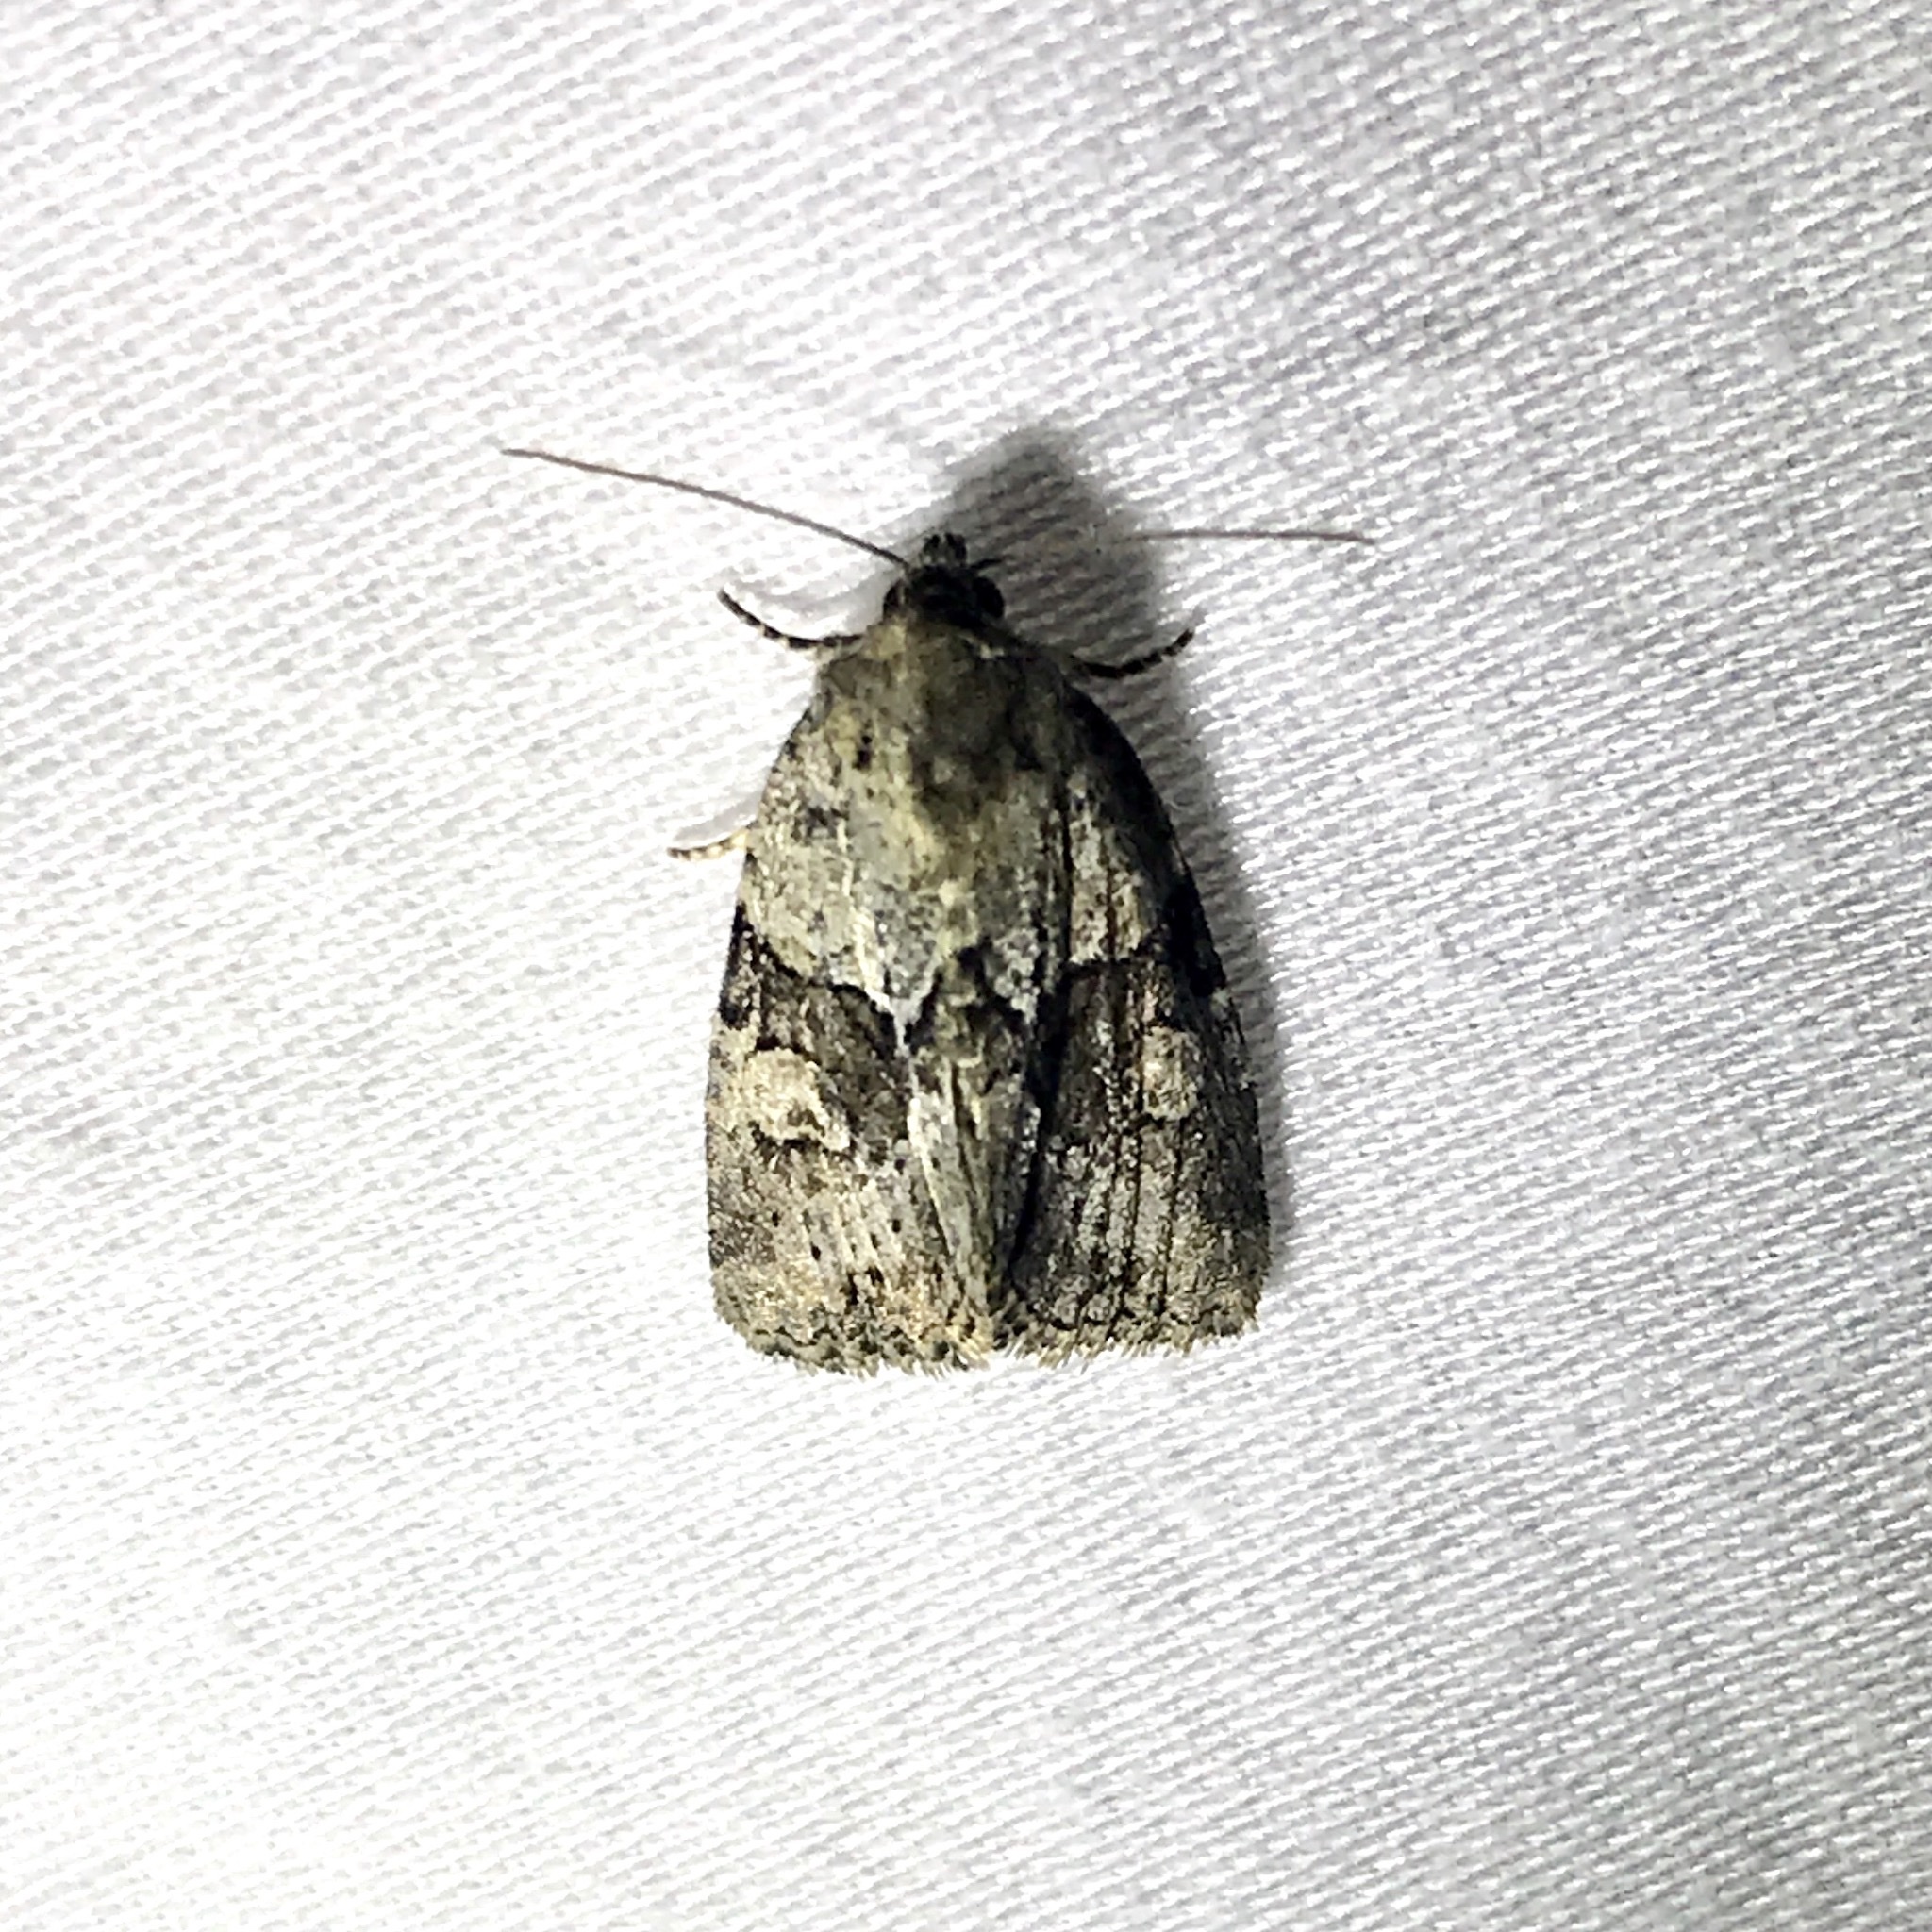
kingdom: Animalia
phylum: Arthropoda
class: Insecta
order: Lepidoptera
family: Noctuidae
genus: Neoligia
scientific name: Neoligia exhausta
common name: Exhausted brocade
